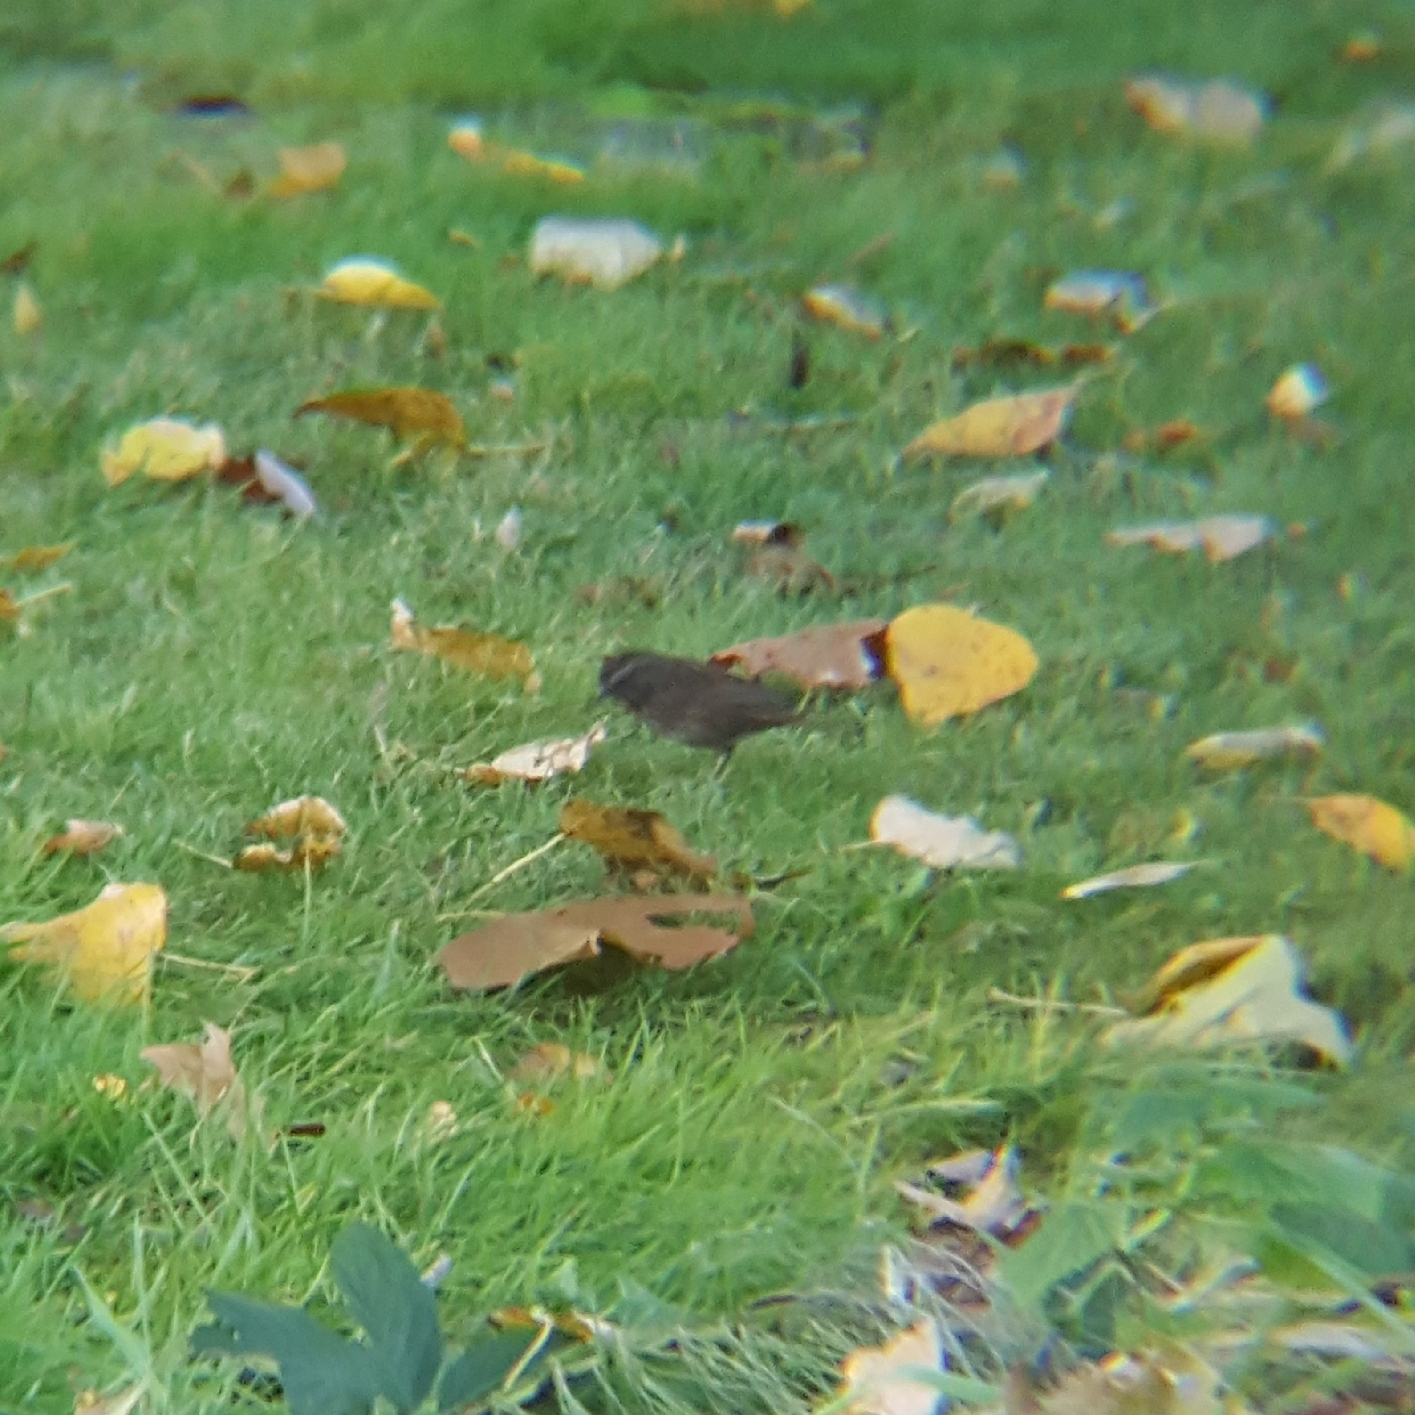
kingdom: Animalia
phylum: Chordata
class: Aves
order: Passeriformes
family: Passerellidae
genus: Melospiza
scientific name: Melospiza melodia
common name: Song sparrow
